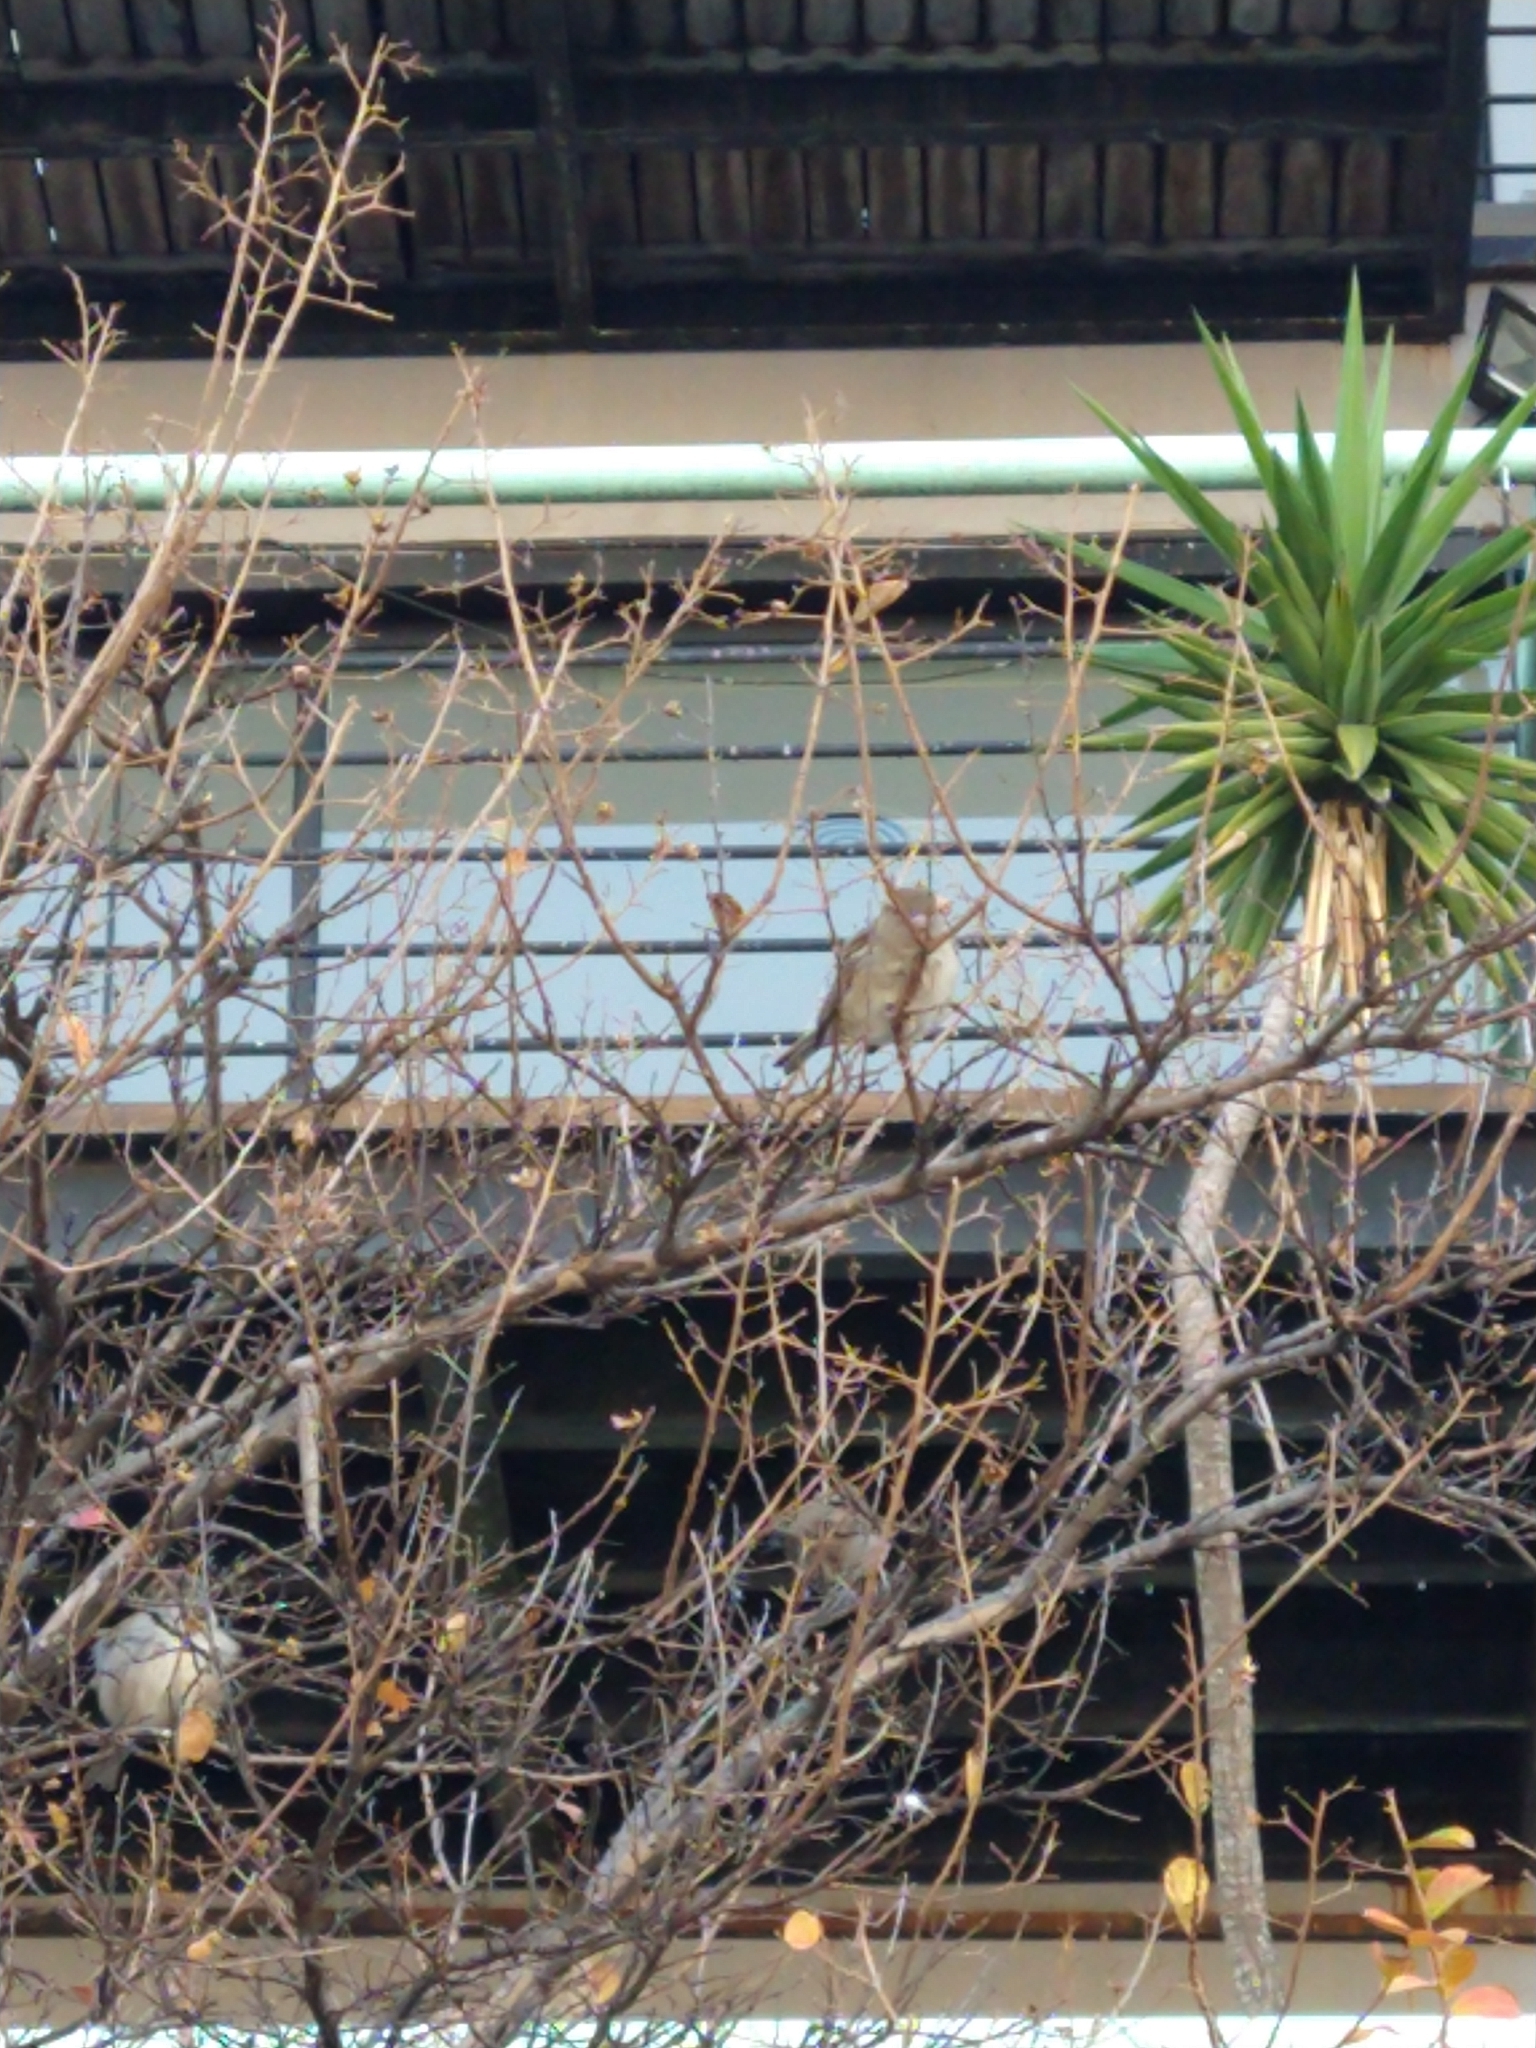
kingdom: Animalia
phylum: Chordata
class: Aves
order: Passeriformes
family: Passeridae
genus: Passer
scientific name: Passer domesticus
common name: House sparrow
